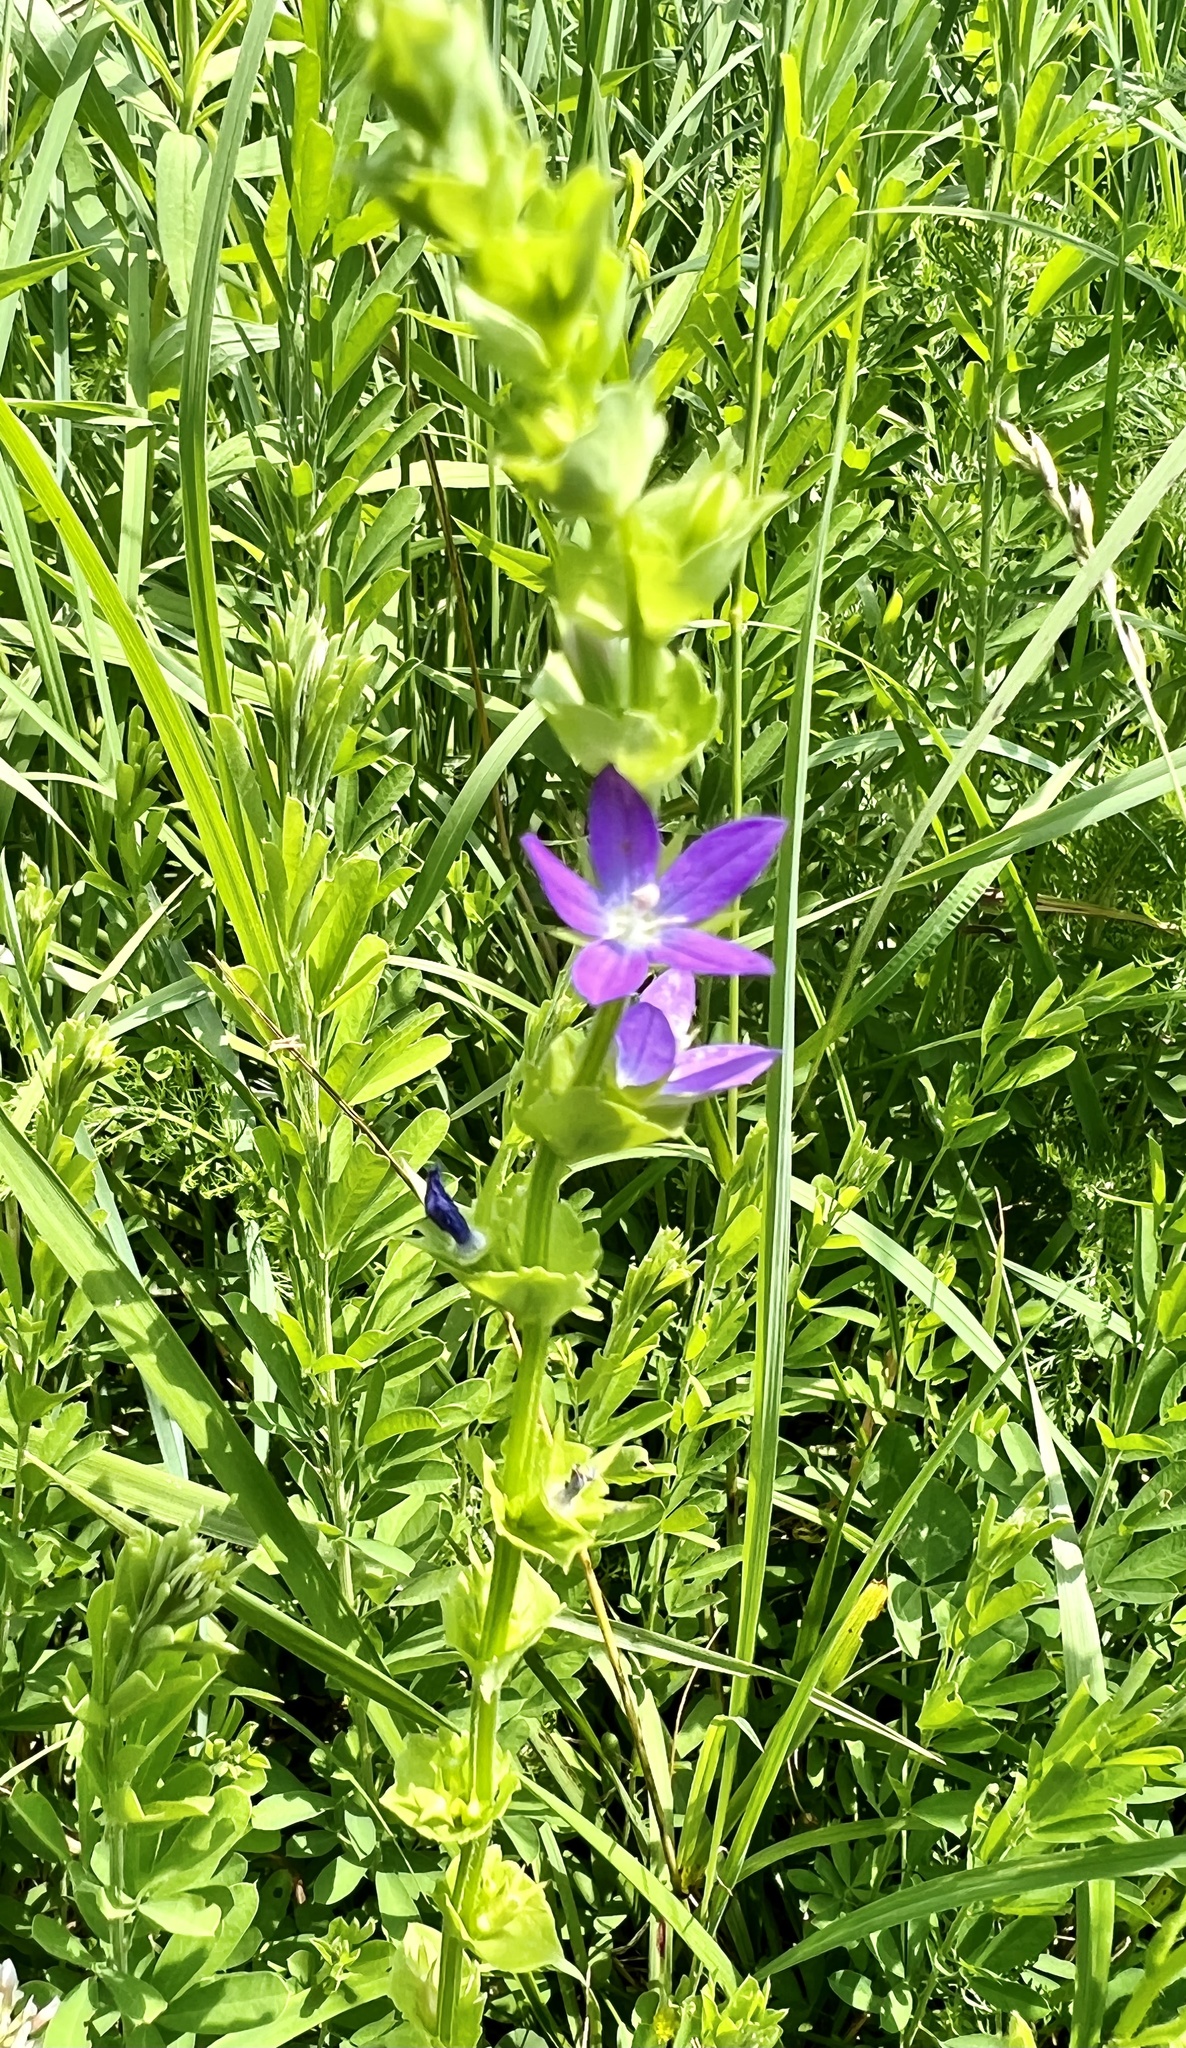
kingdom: Plantae
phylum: Tracheophyta
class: Magnoliopsida
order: Asterales
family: Campanulaceae
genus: Triodanis
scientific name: Triodanis perfoliata
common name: Clasping venus' looking-glass
